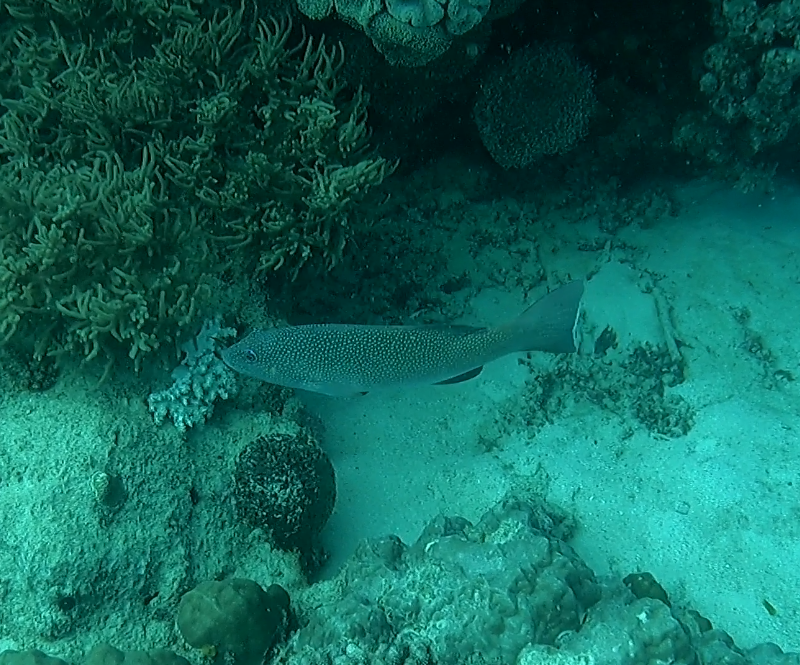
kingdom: Animalia
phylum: Chordata
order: Perciformes
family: Serranidae
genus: Plectropomus
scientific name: Plectropomus leopardus
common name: Coral trout
